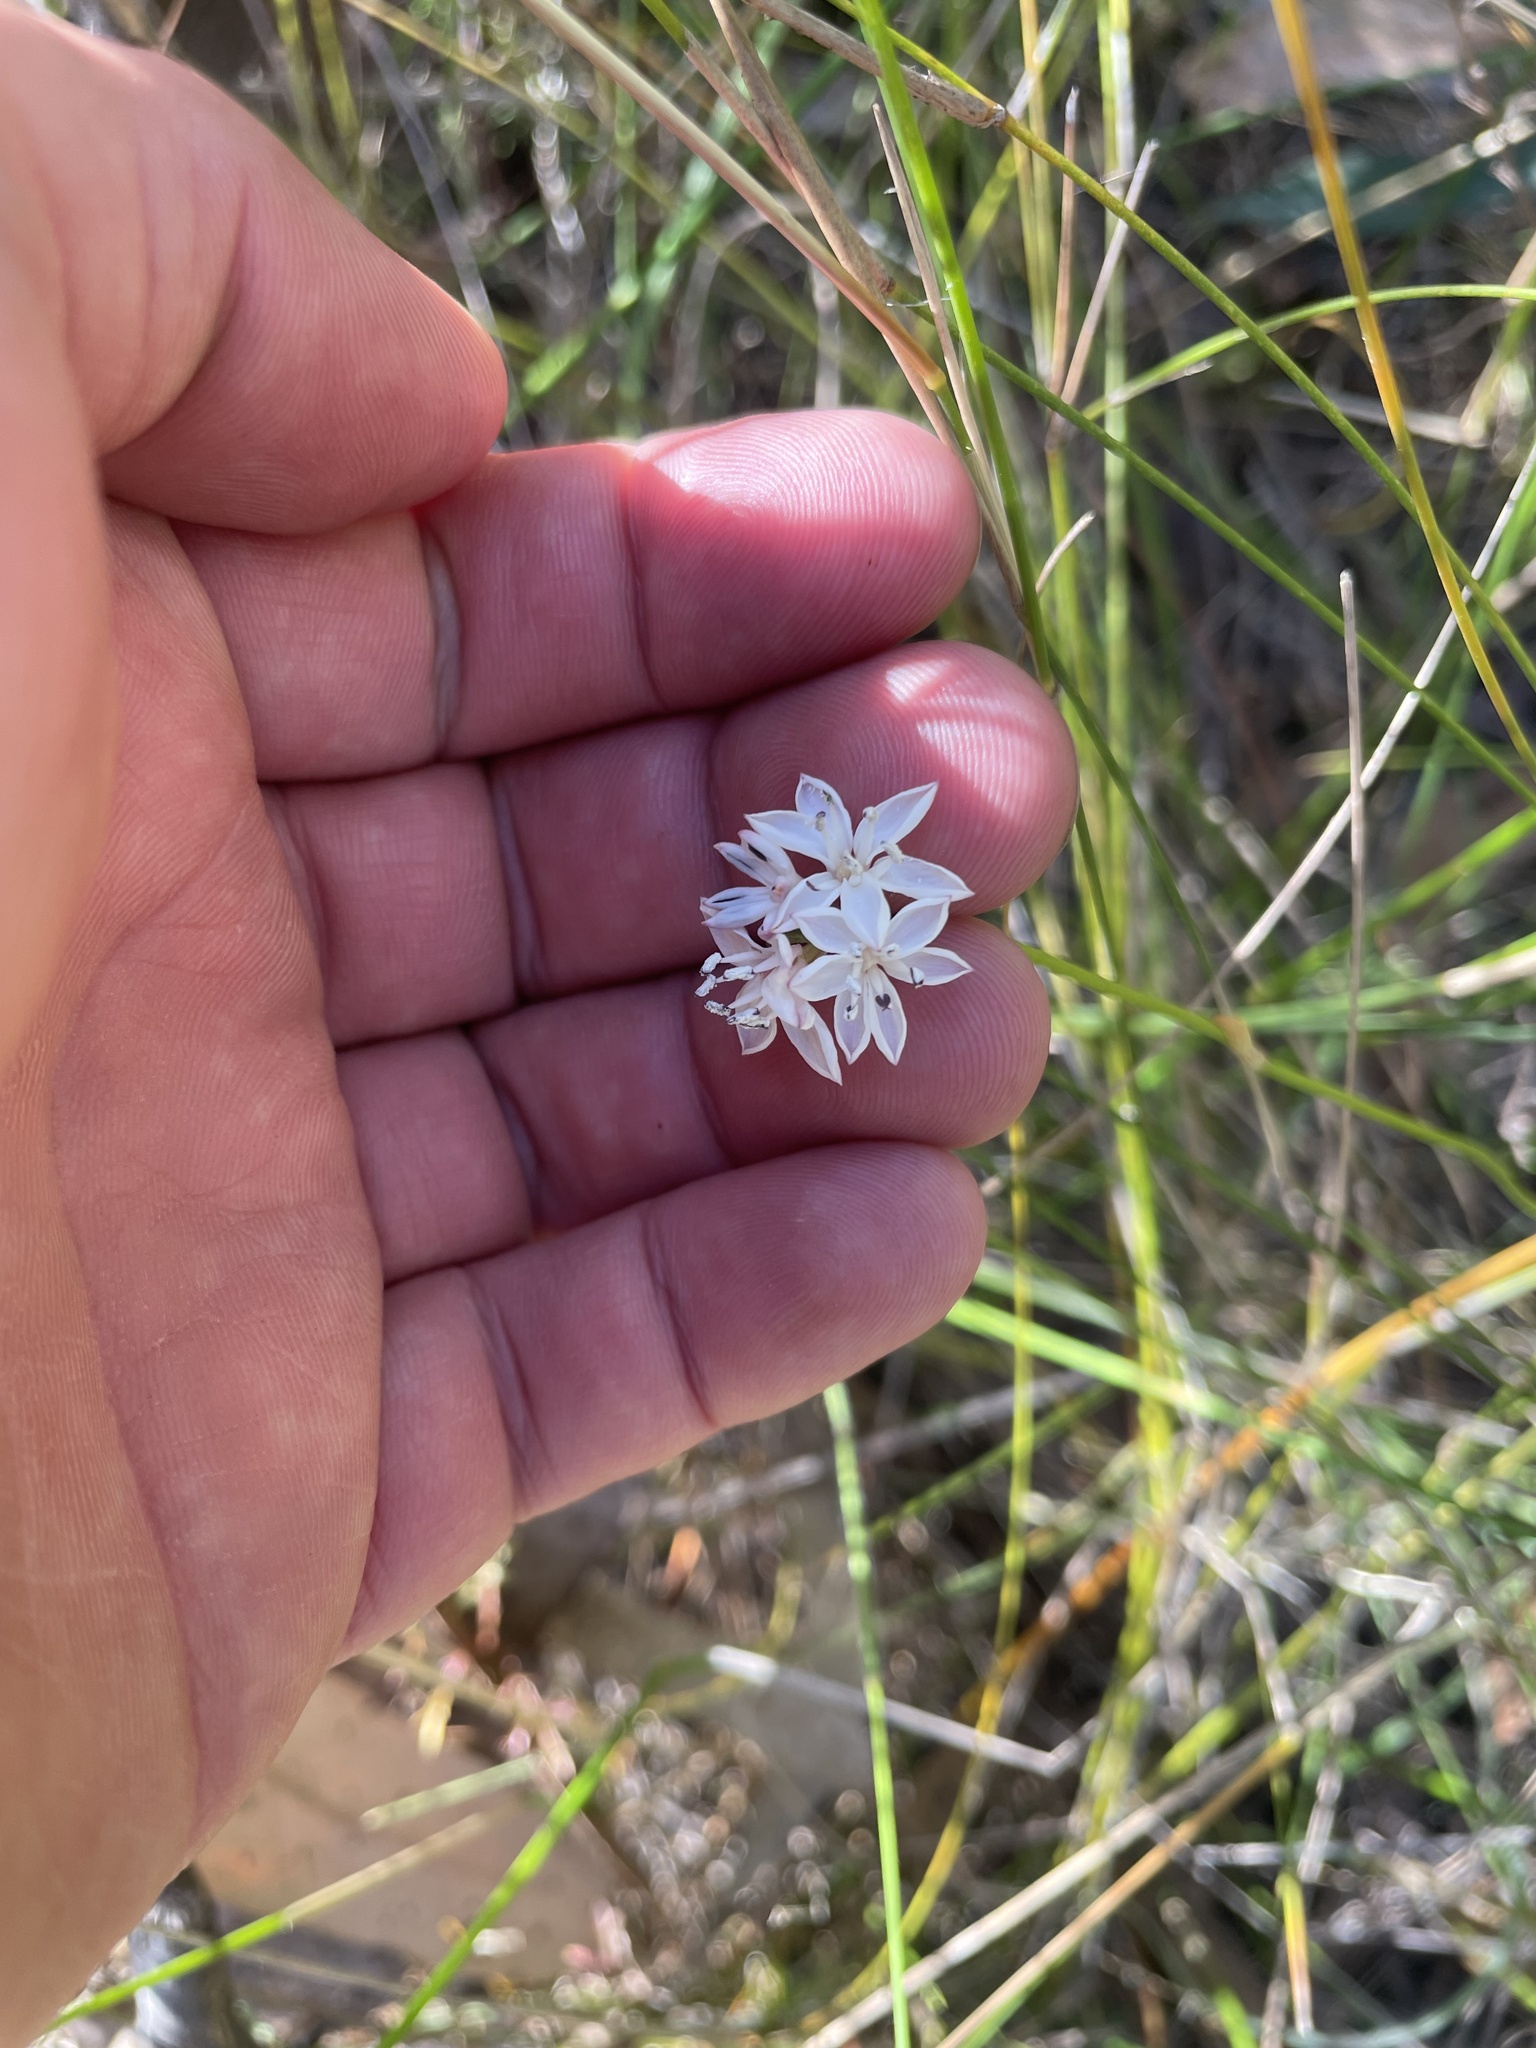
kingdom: Plantae
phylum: Tracheophyta
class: Liliopsida
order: Liliales
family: Colchicaceae
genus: Burchardia
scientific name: Burchardia umbellata
